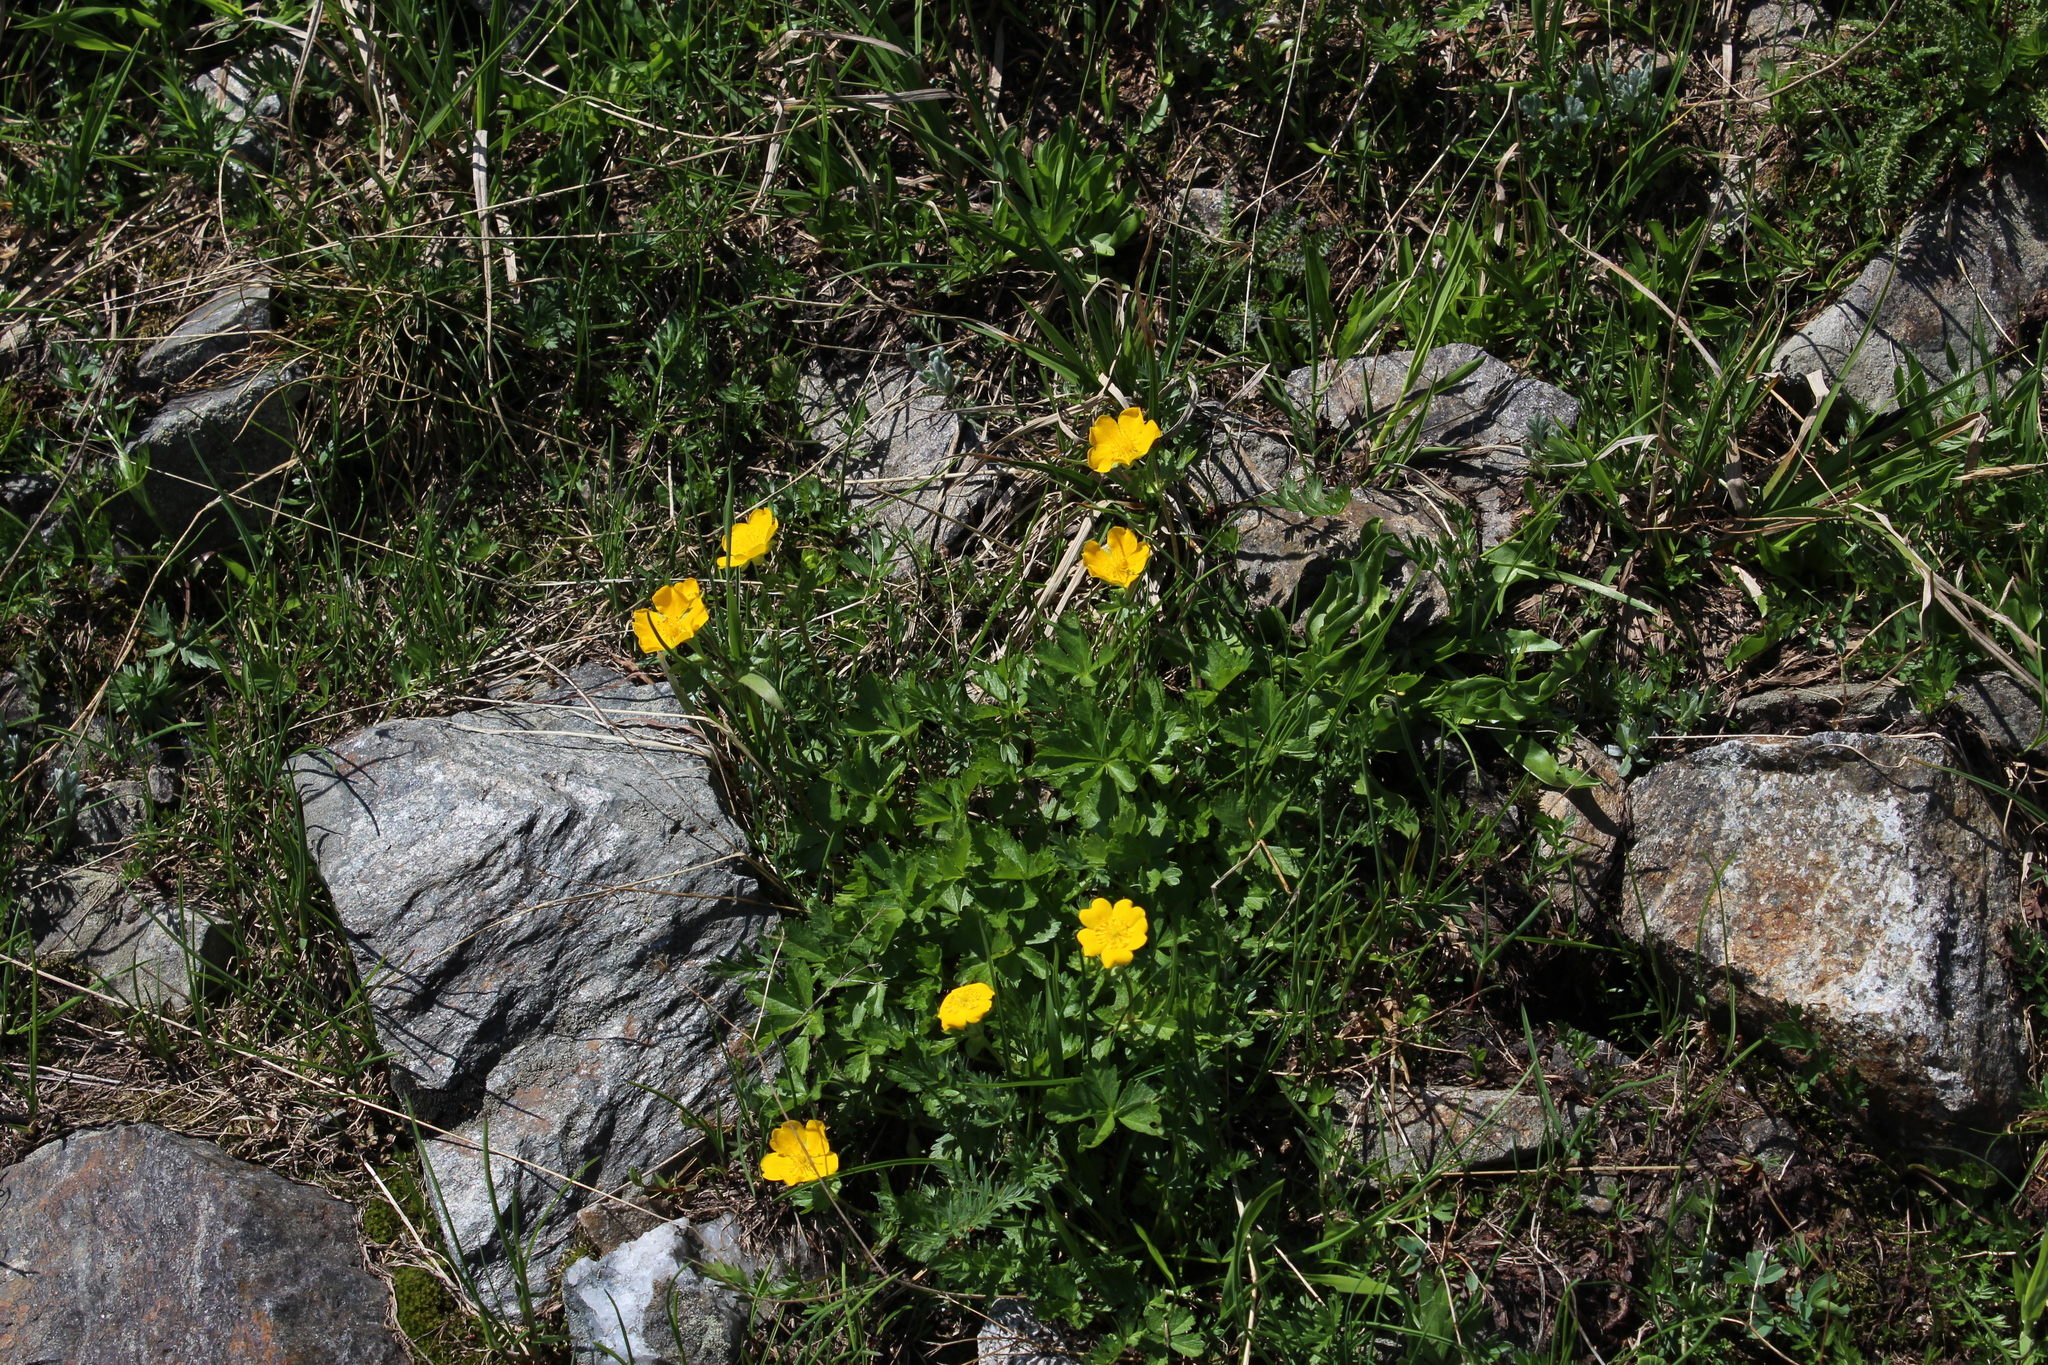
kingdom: Plantae
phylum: Tracheophyta
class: Magnoliopsida
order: Rosales
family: Rosaceae
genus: Potentilla
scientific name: Potentilla ruprechtii
